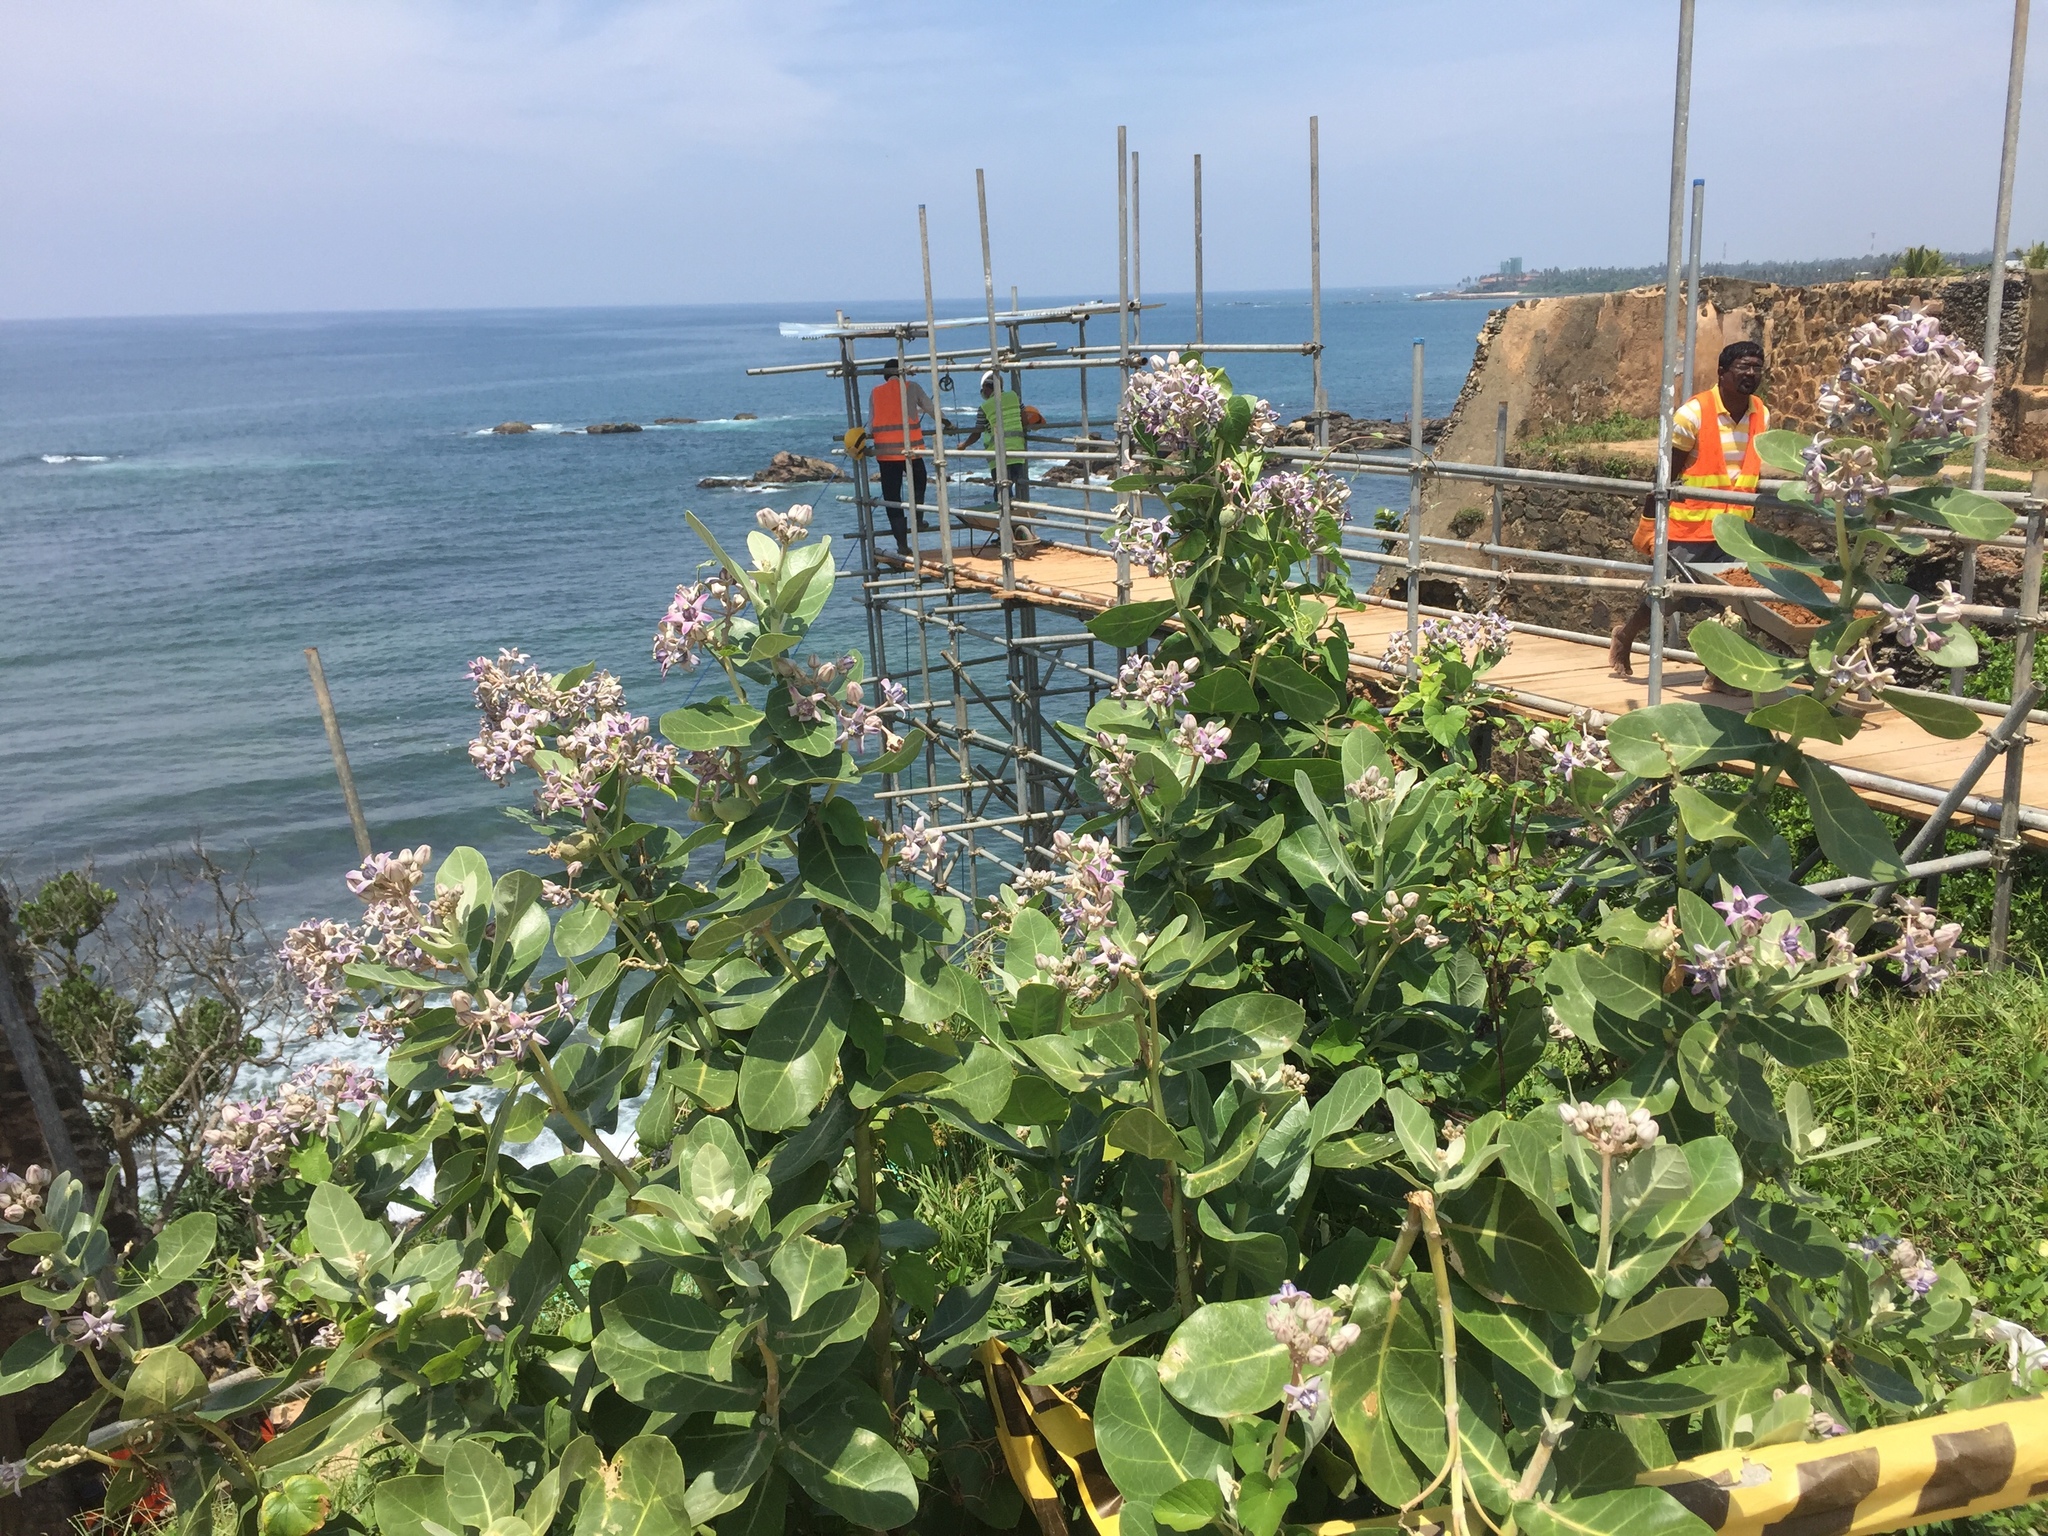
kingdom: Plantae
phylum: Tracheophyta
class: Magnoliopsida
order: Gentianales
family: Apocynaceae
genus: Calotropis
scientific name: Calotropis gigantea
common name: Crown flower
